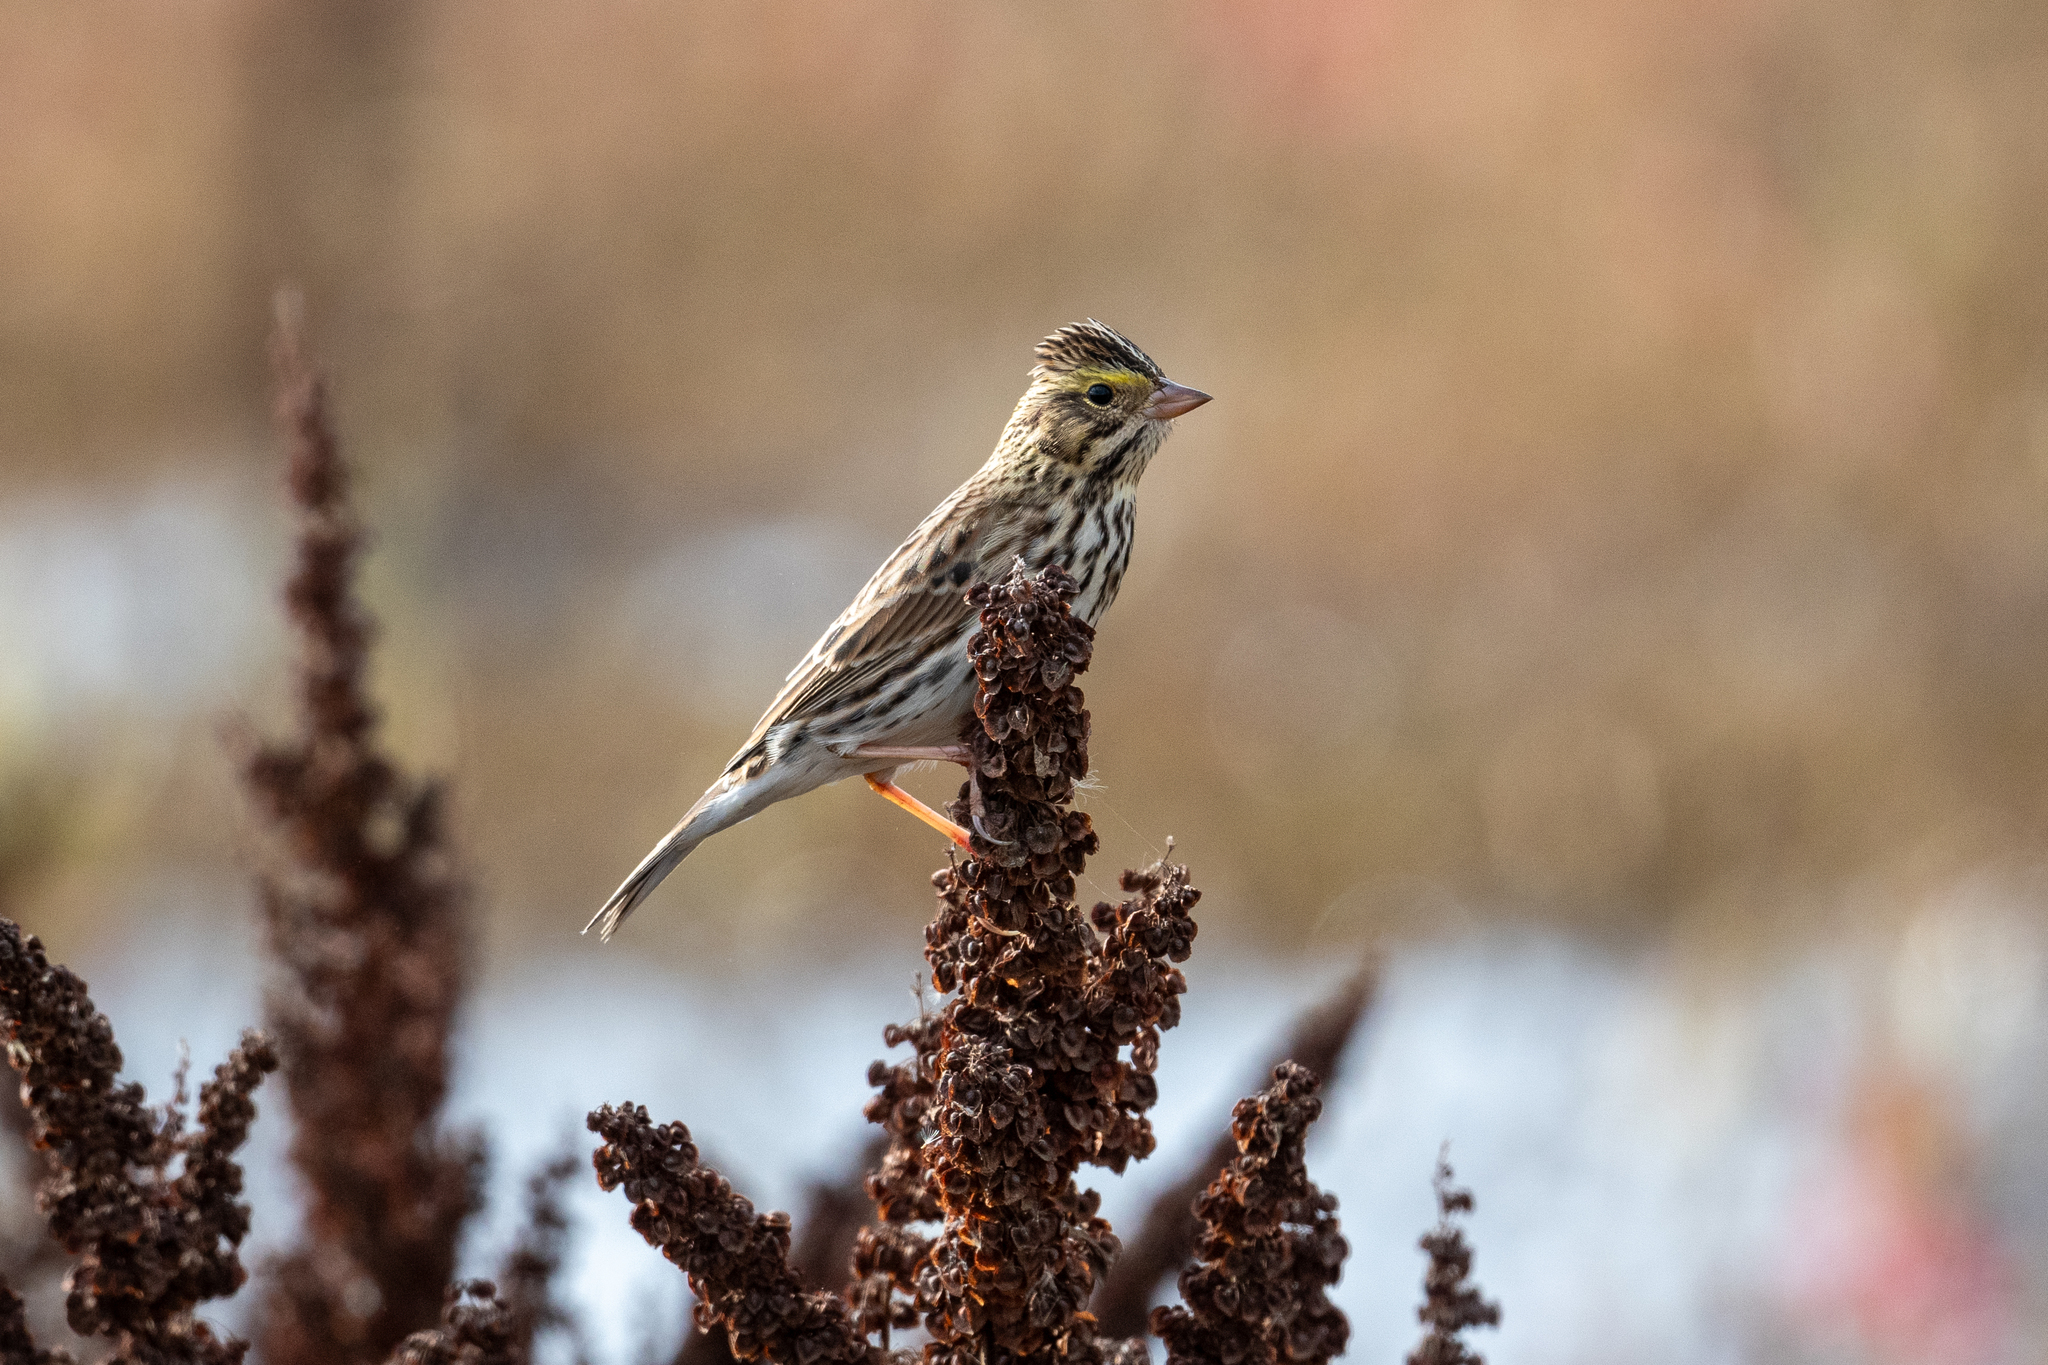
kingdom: Animalia
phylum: Chordata
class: Aves
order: Passeriformes
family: Passerellidae
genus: Passerculus
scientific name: Passerculus sandwichensis
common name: Savannah sparrow
